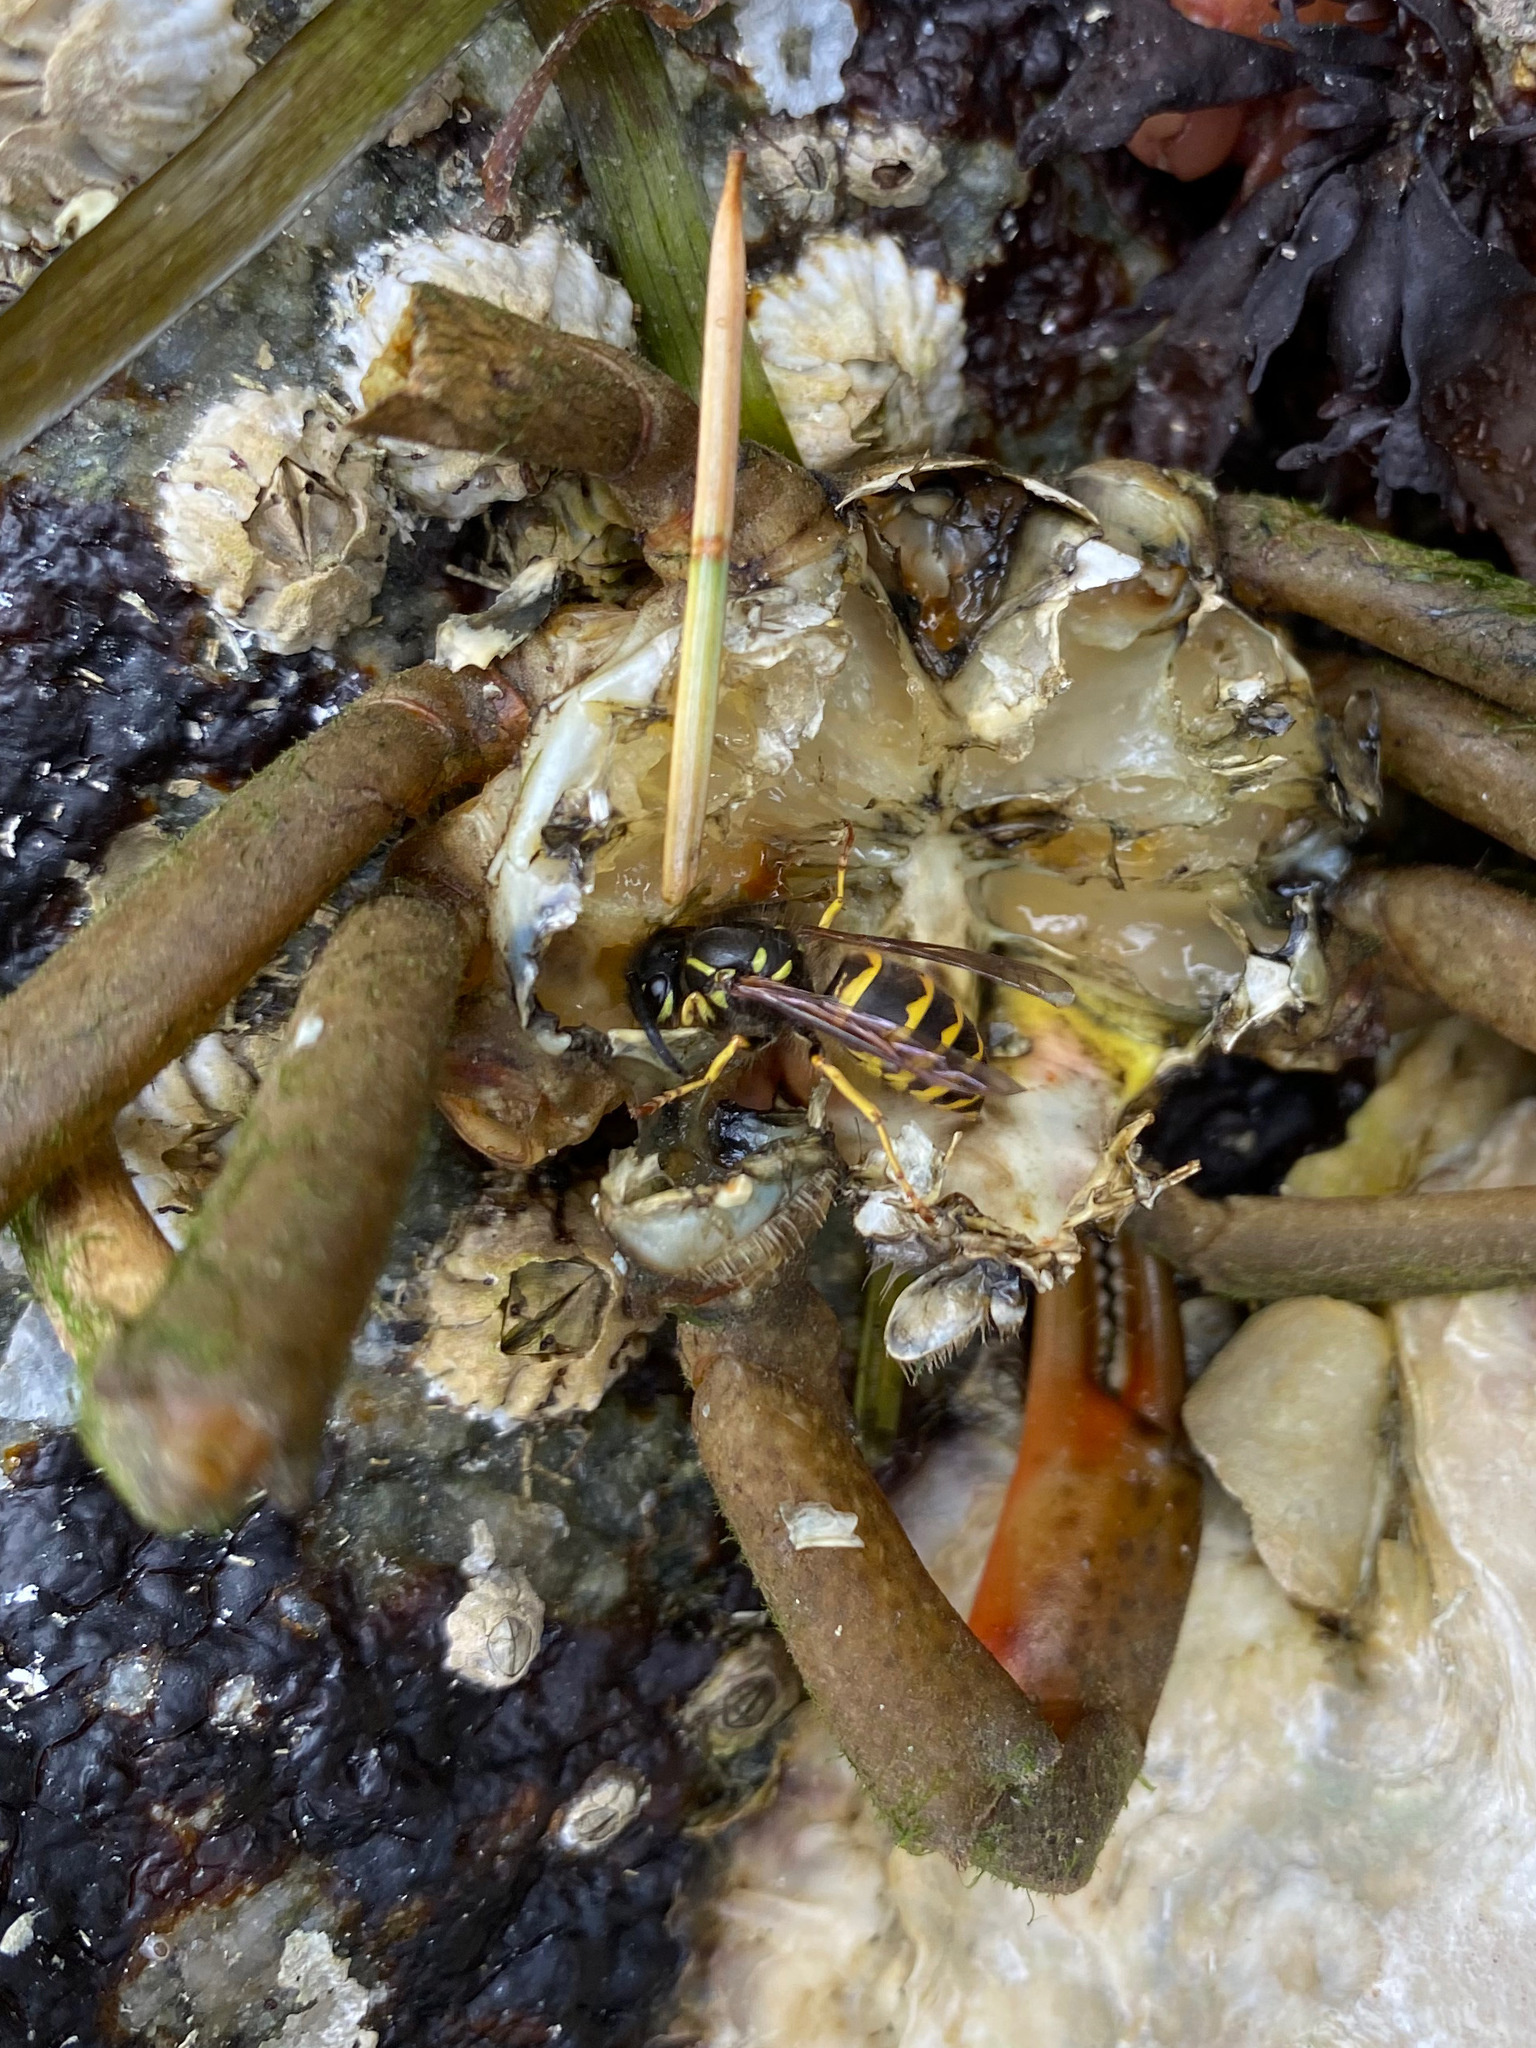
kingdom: Animalia
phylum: Arthropoda
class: Insecta
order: Hymenoptera
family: Vespidae
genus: Vespula
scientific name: Vespula alascensis
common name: Alaska yellowjacket
